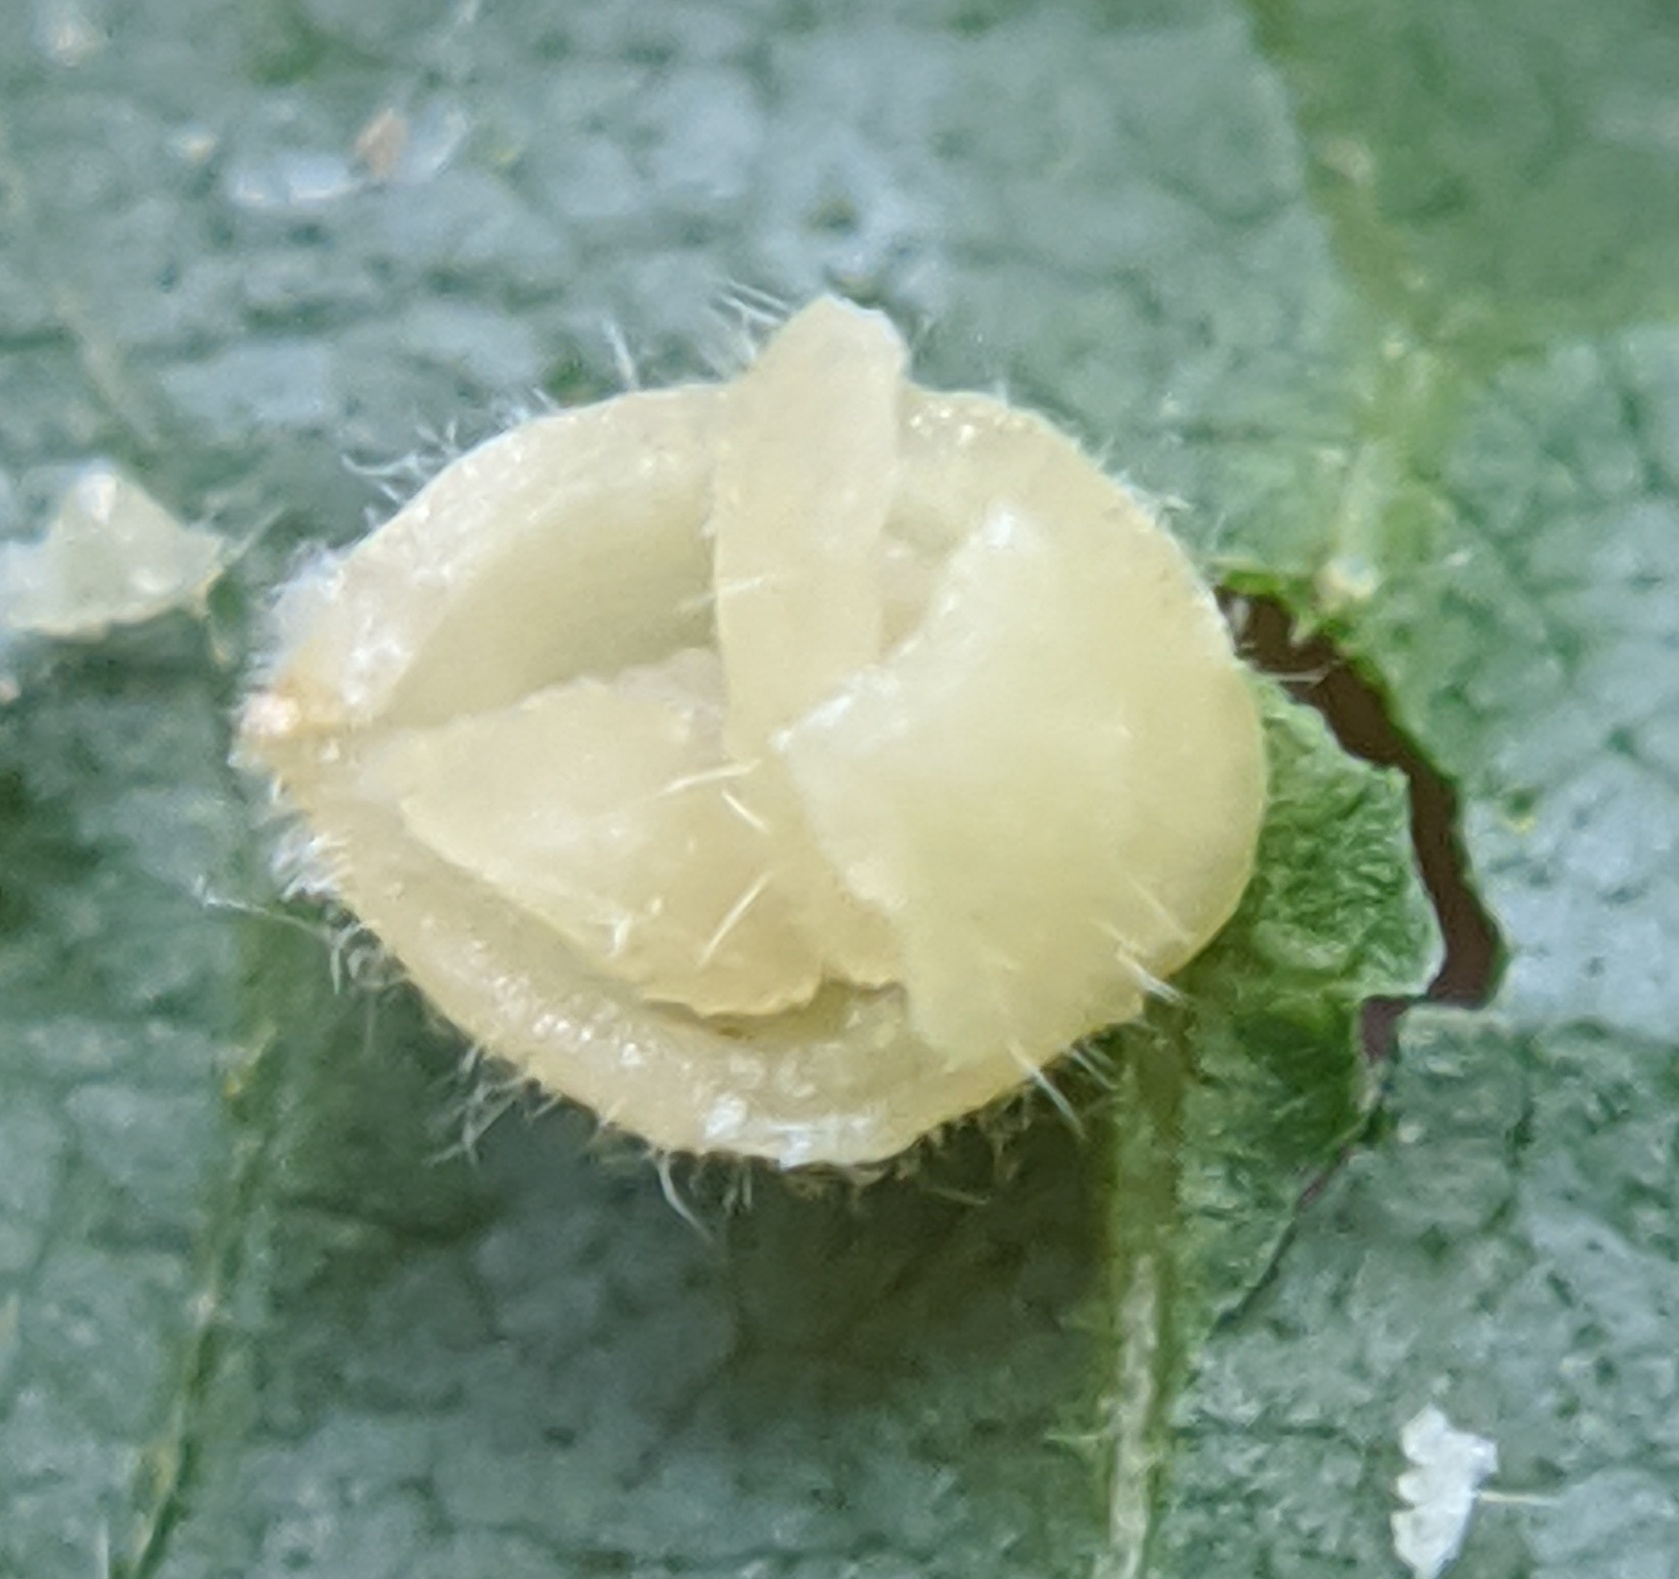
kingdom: Animalia
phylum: Arthropoda
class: Insecta
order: Diptera
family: Cecidomyiidae
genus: Caryomyia
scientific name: Caryomyia cilidolium
